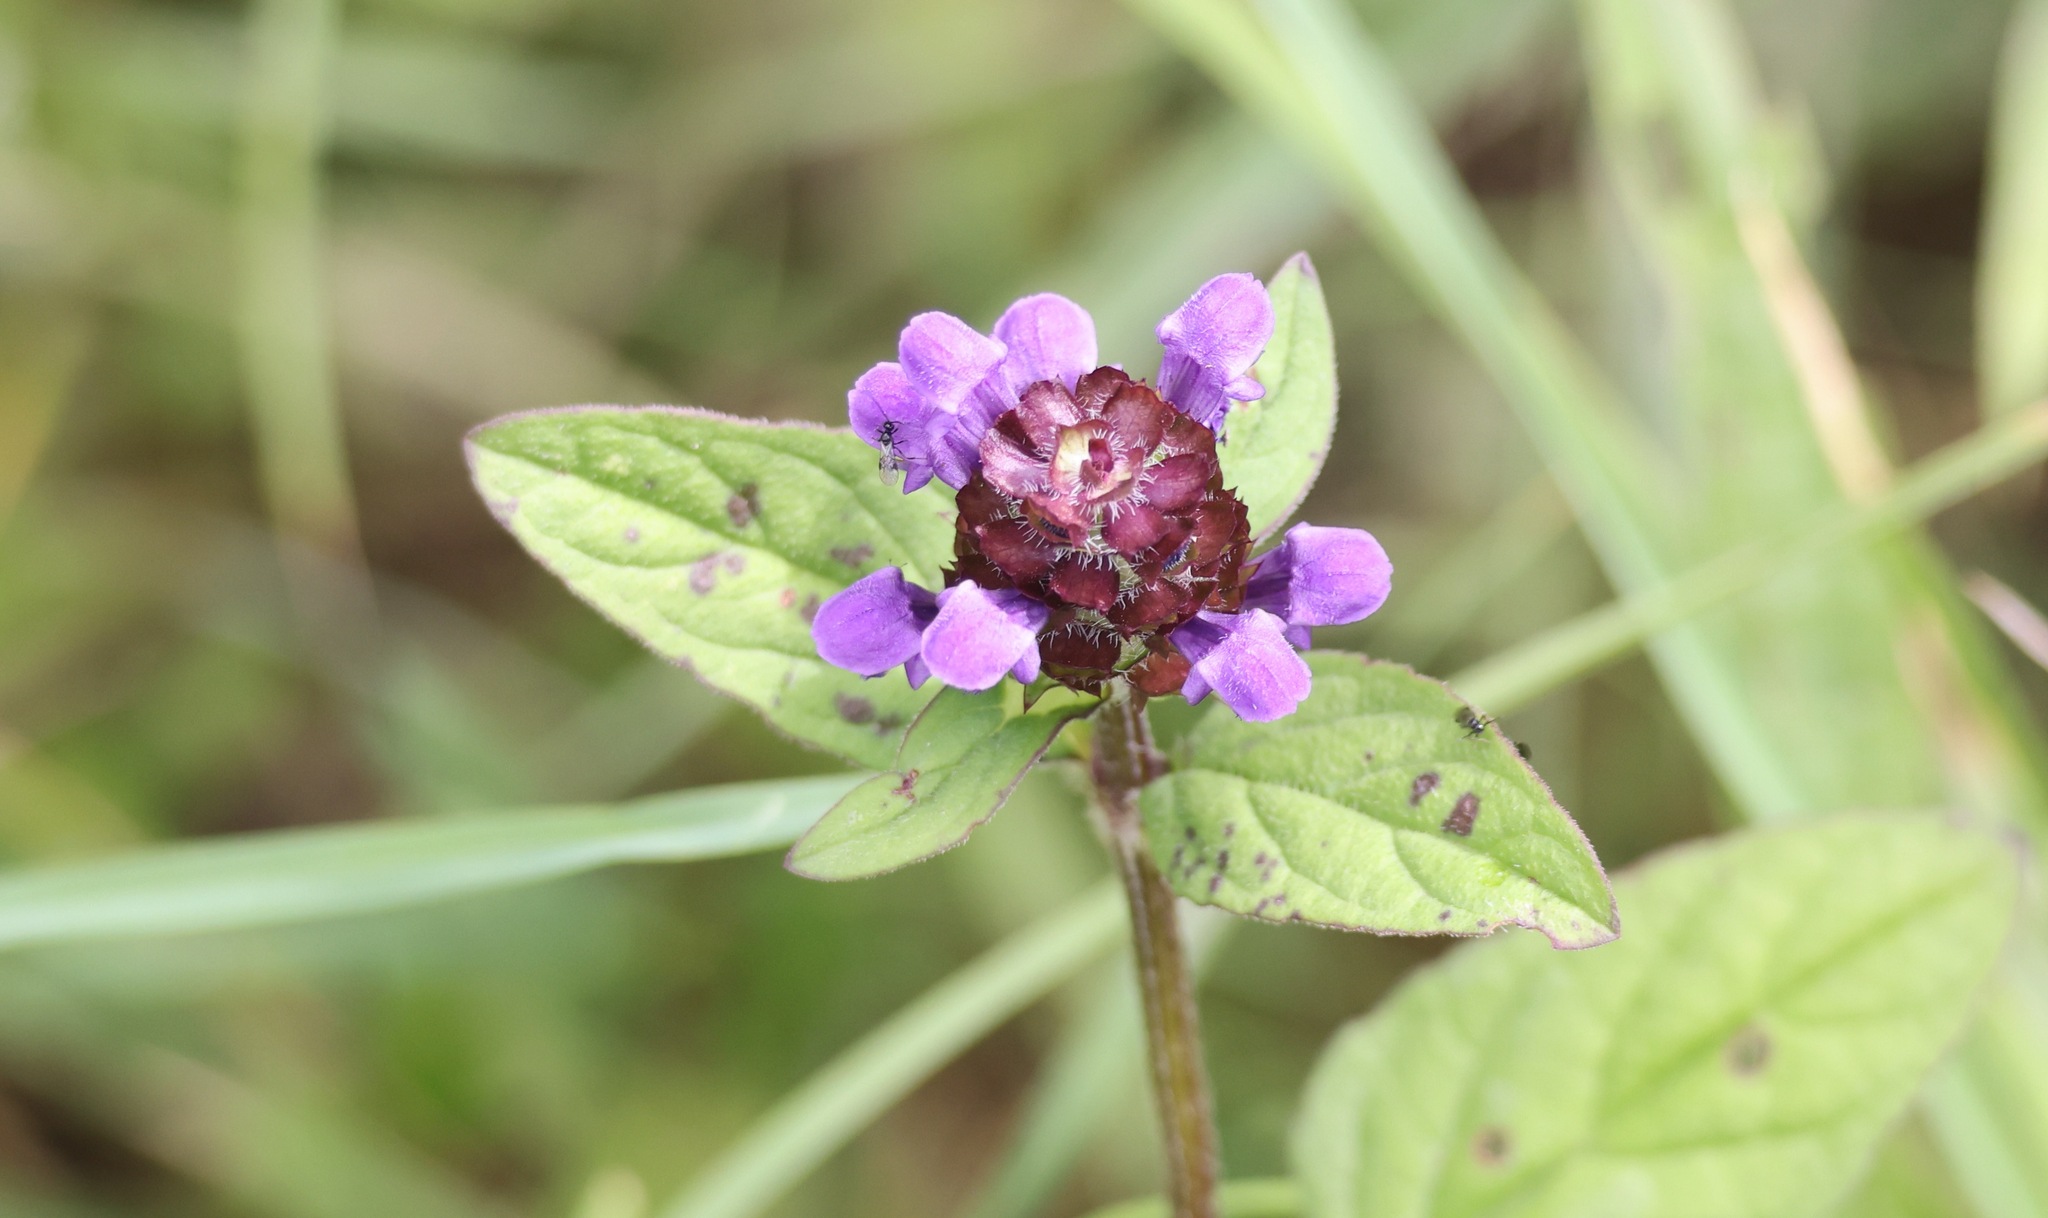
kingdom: Plantae
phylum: Tracheophyta
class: Magnoliopsida
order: Lamiales
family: Lamiaceae
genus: Prunella
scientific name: Prunella vulgaris
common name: Heal-all
